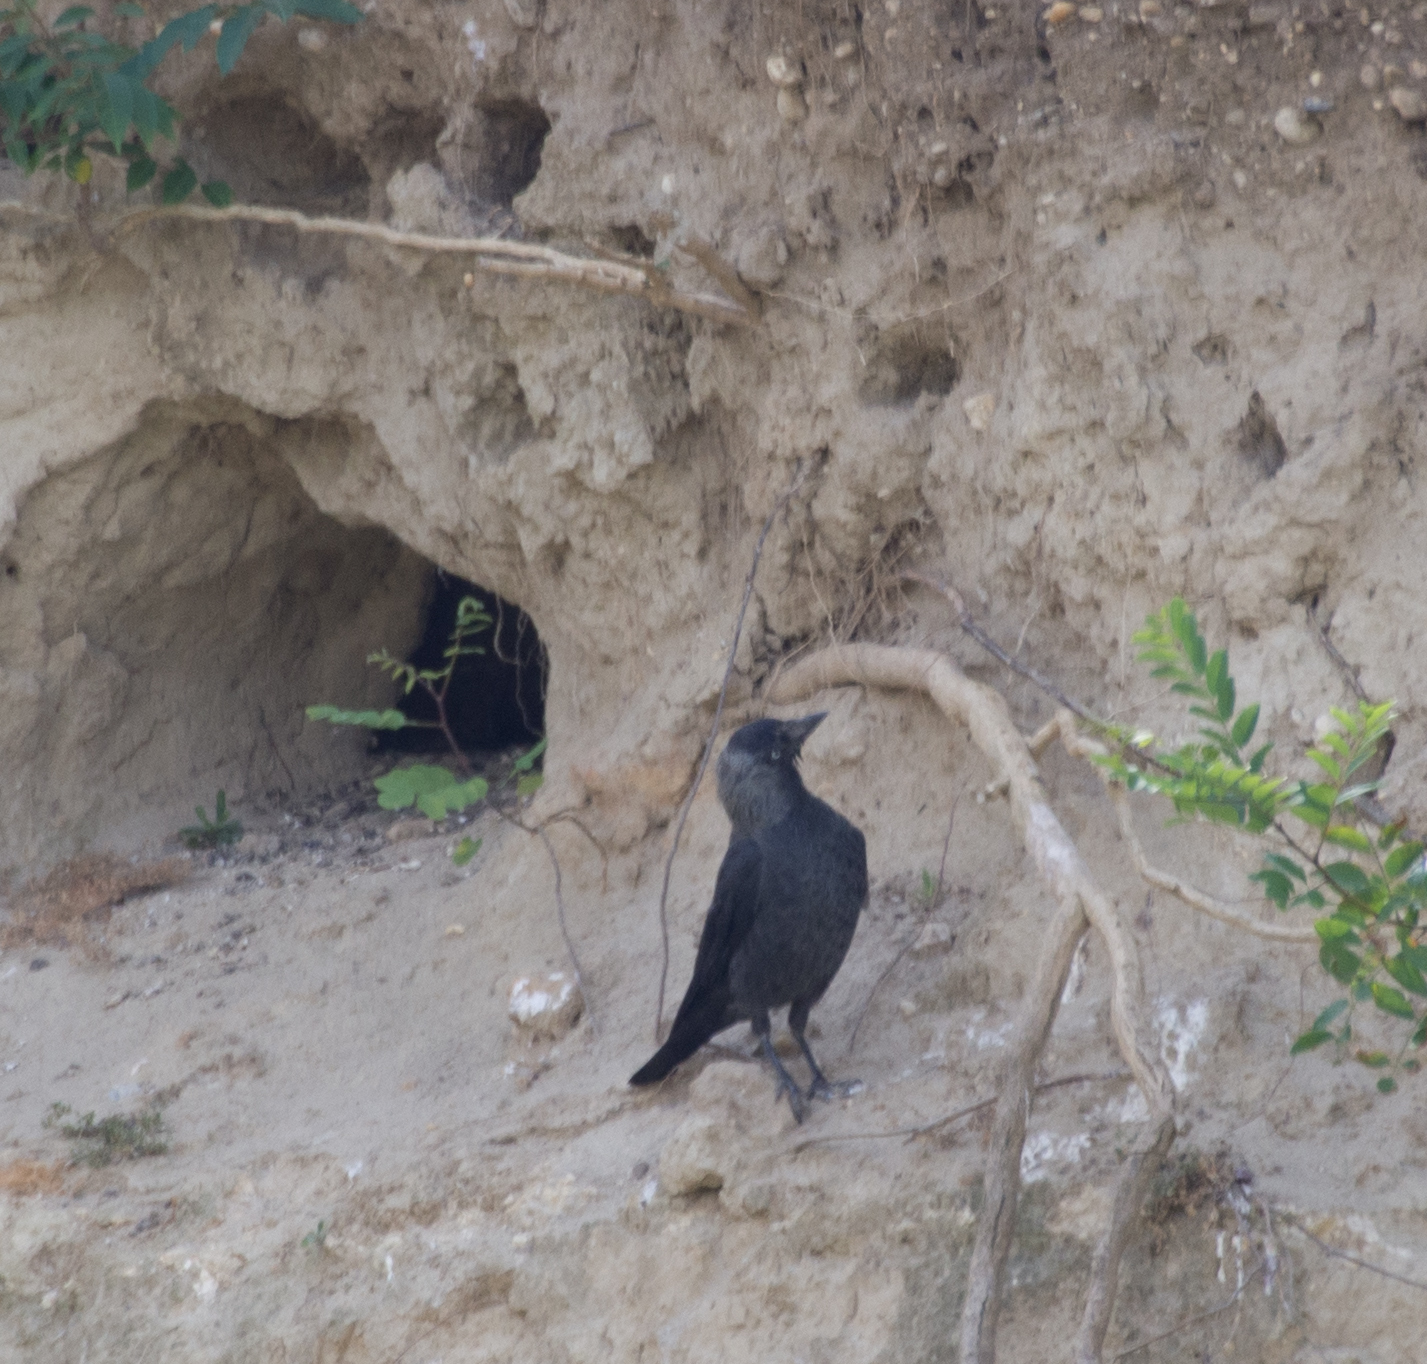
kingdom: Animalia
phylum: Chordata
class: Aves
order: Passeriformes
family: Corvidae
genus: Coloeus
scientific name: Coloeus monedula
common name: Western jackdaw
